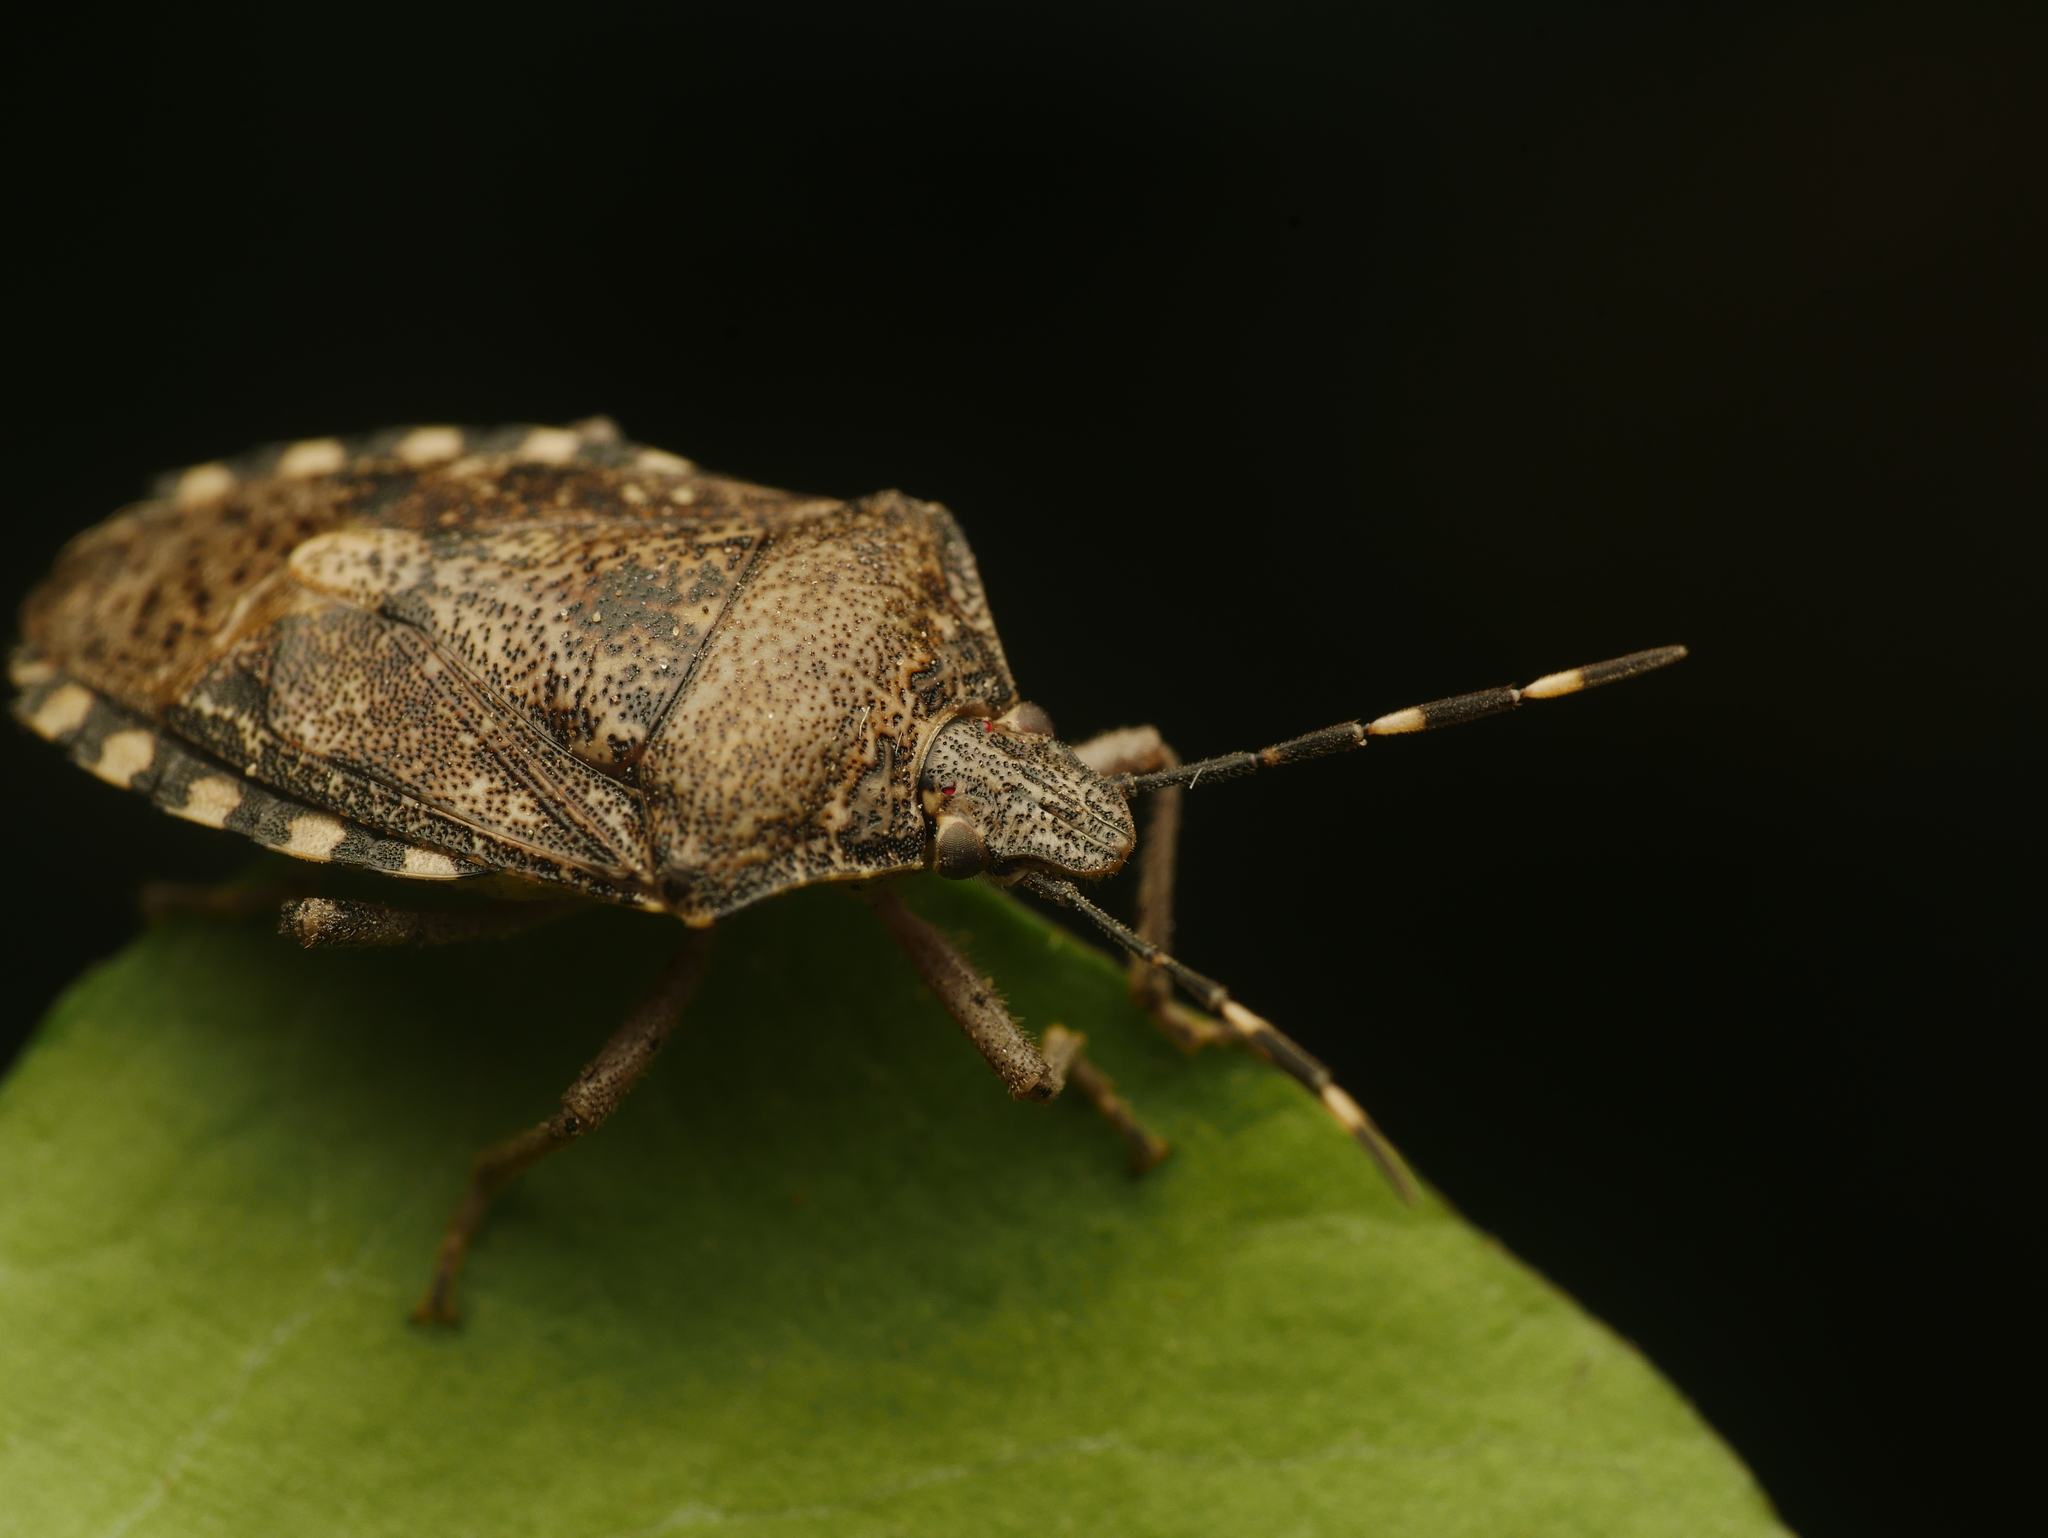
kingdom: Animalia
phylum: Arthropoda
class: Insecta
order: Hemiptera
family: Pentatomidae
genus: Rhaphigaster
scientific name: Rhaphigaster nebulosa
